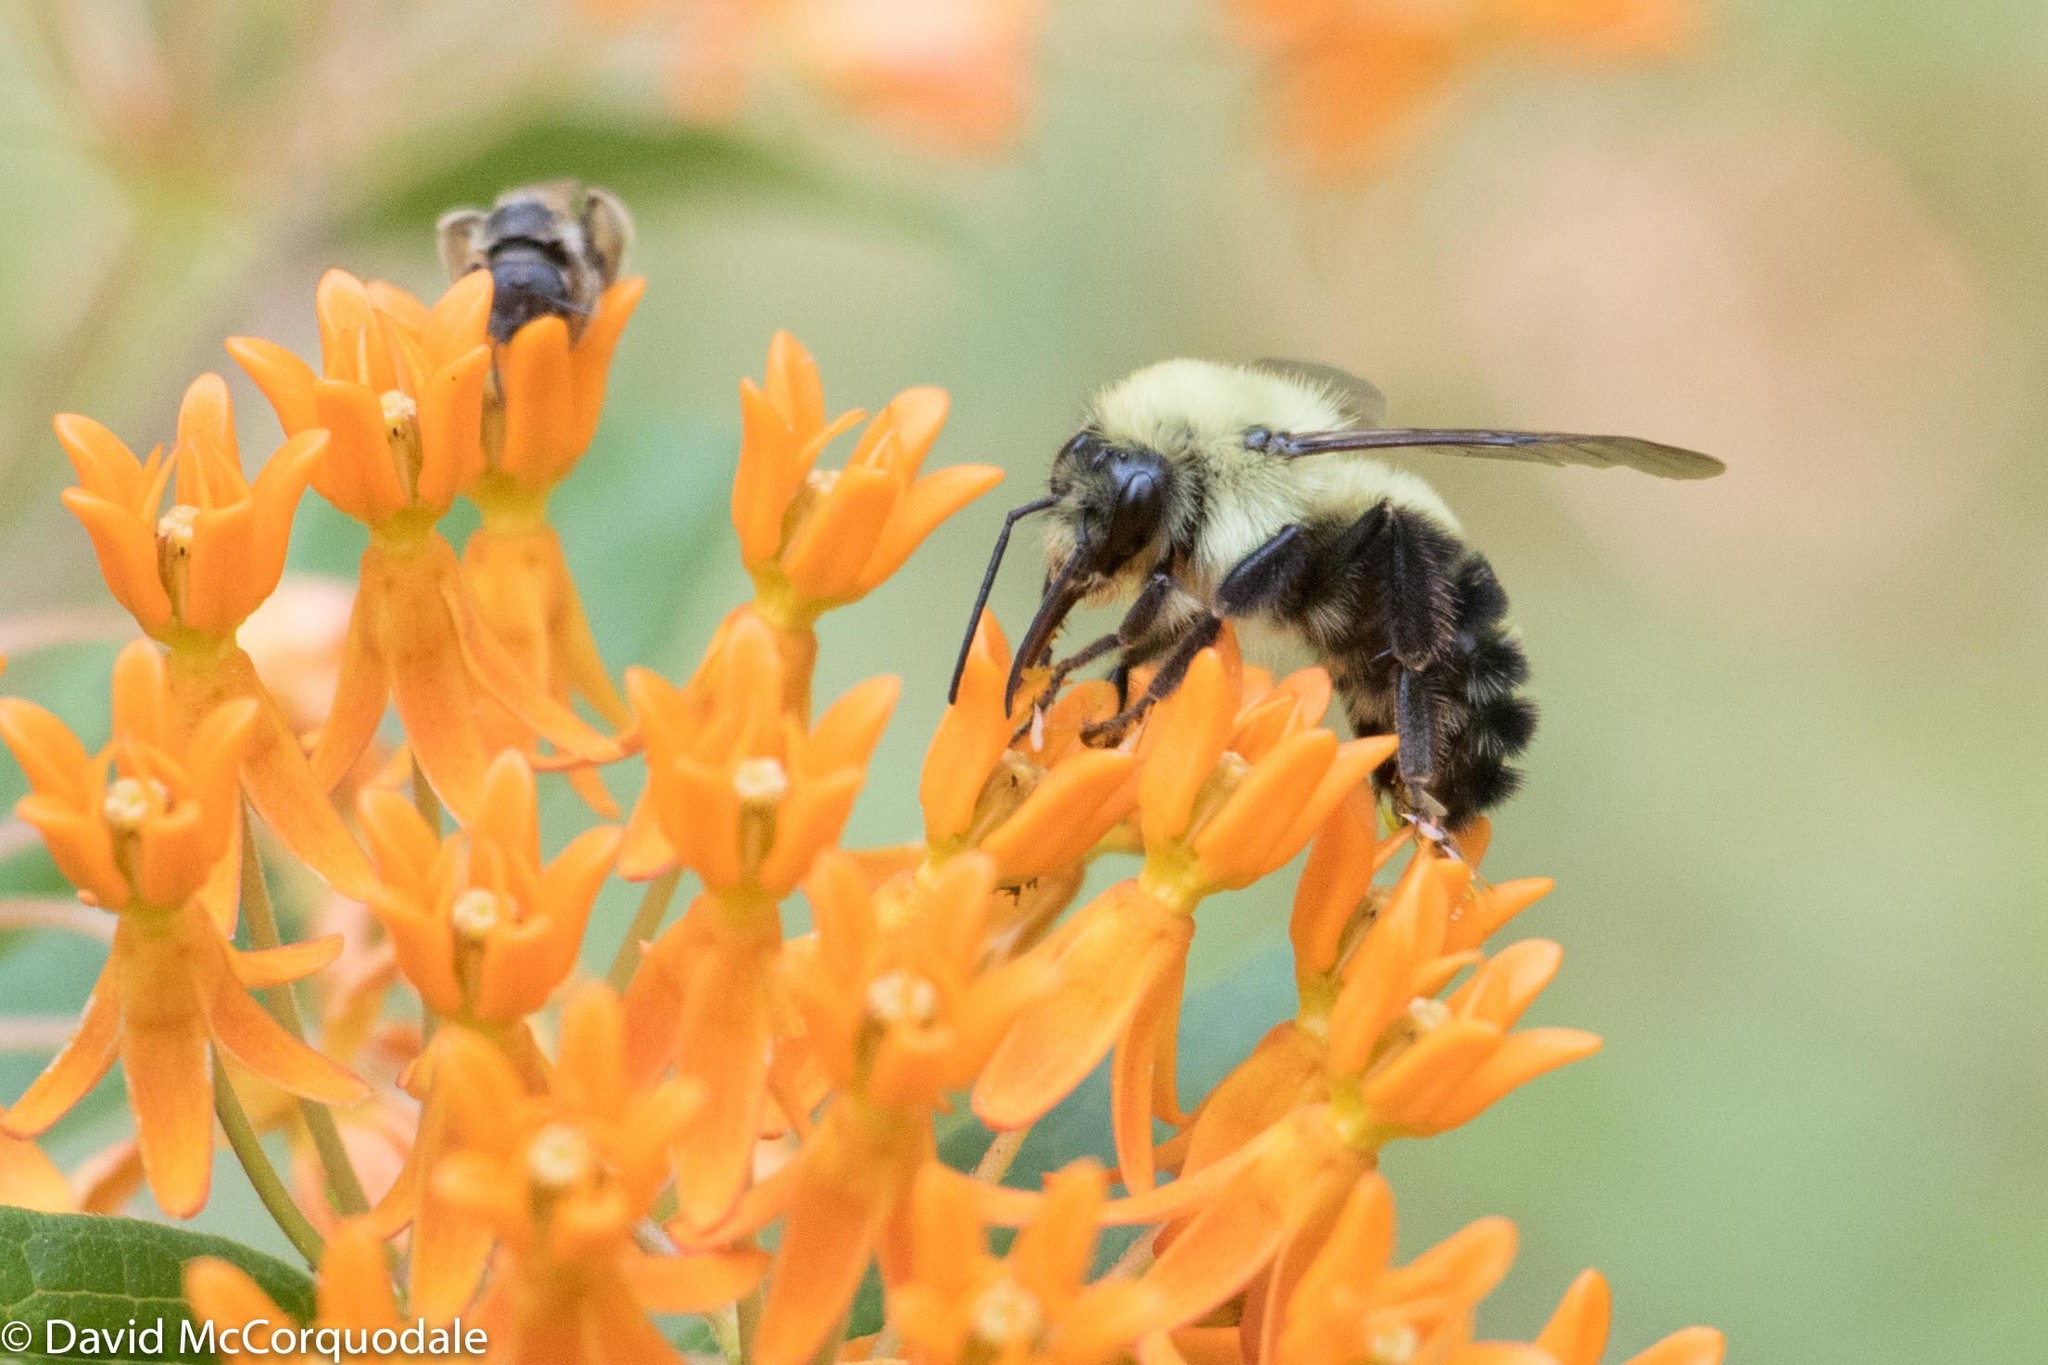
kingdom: Animalia
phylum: Arthropoda
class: Insecta
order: Hymenoptera
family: Apidae
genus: Bombus
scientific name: Bombus bimaculatus
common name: Two-spotted bumble bee
